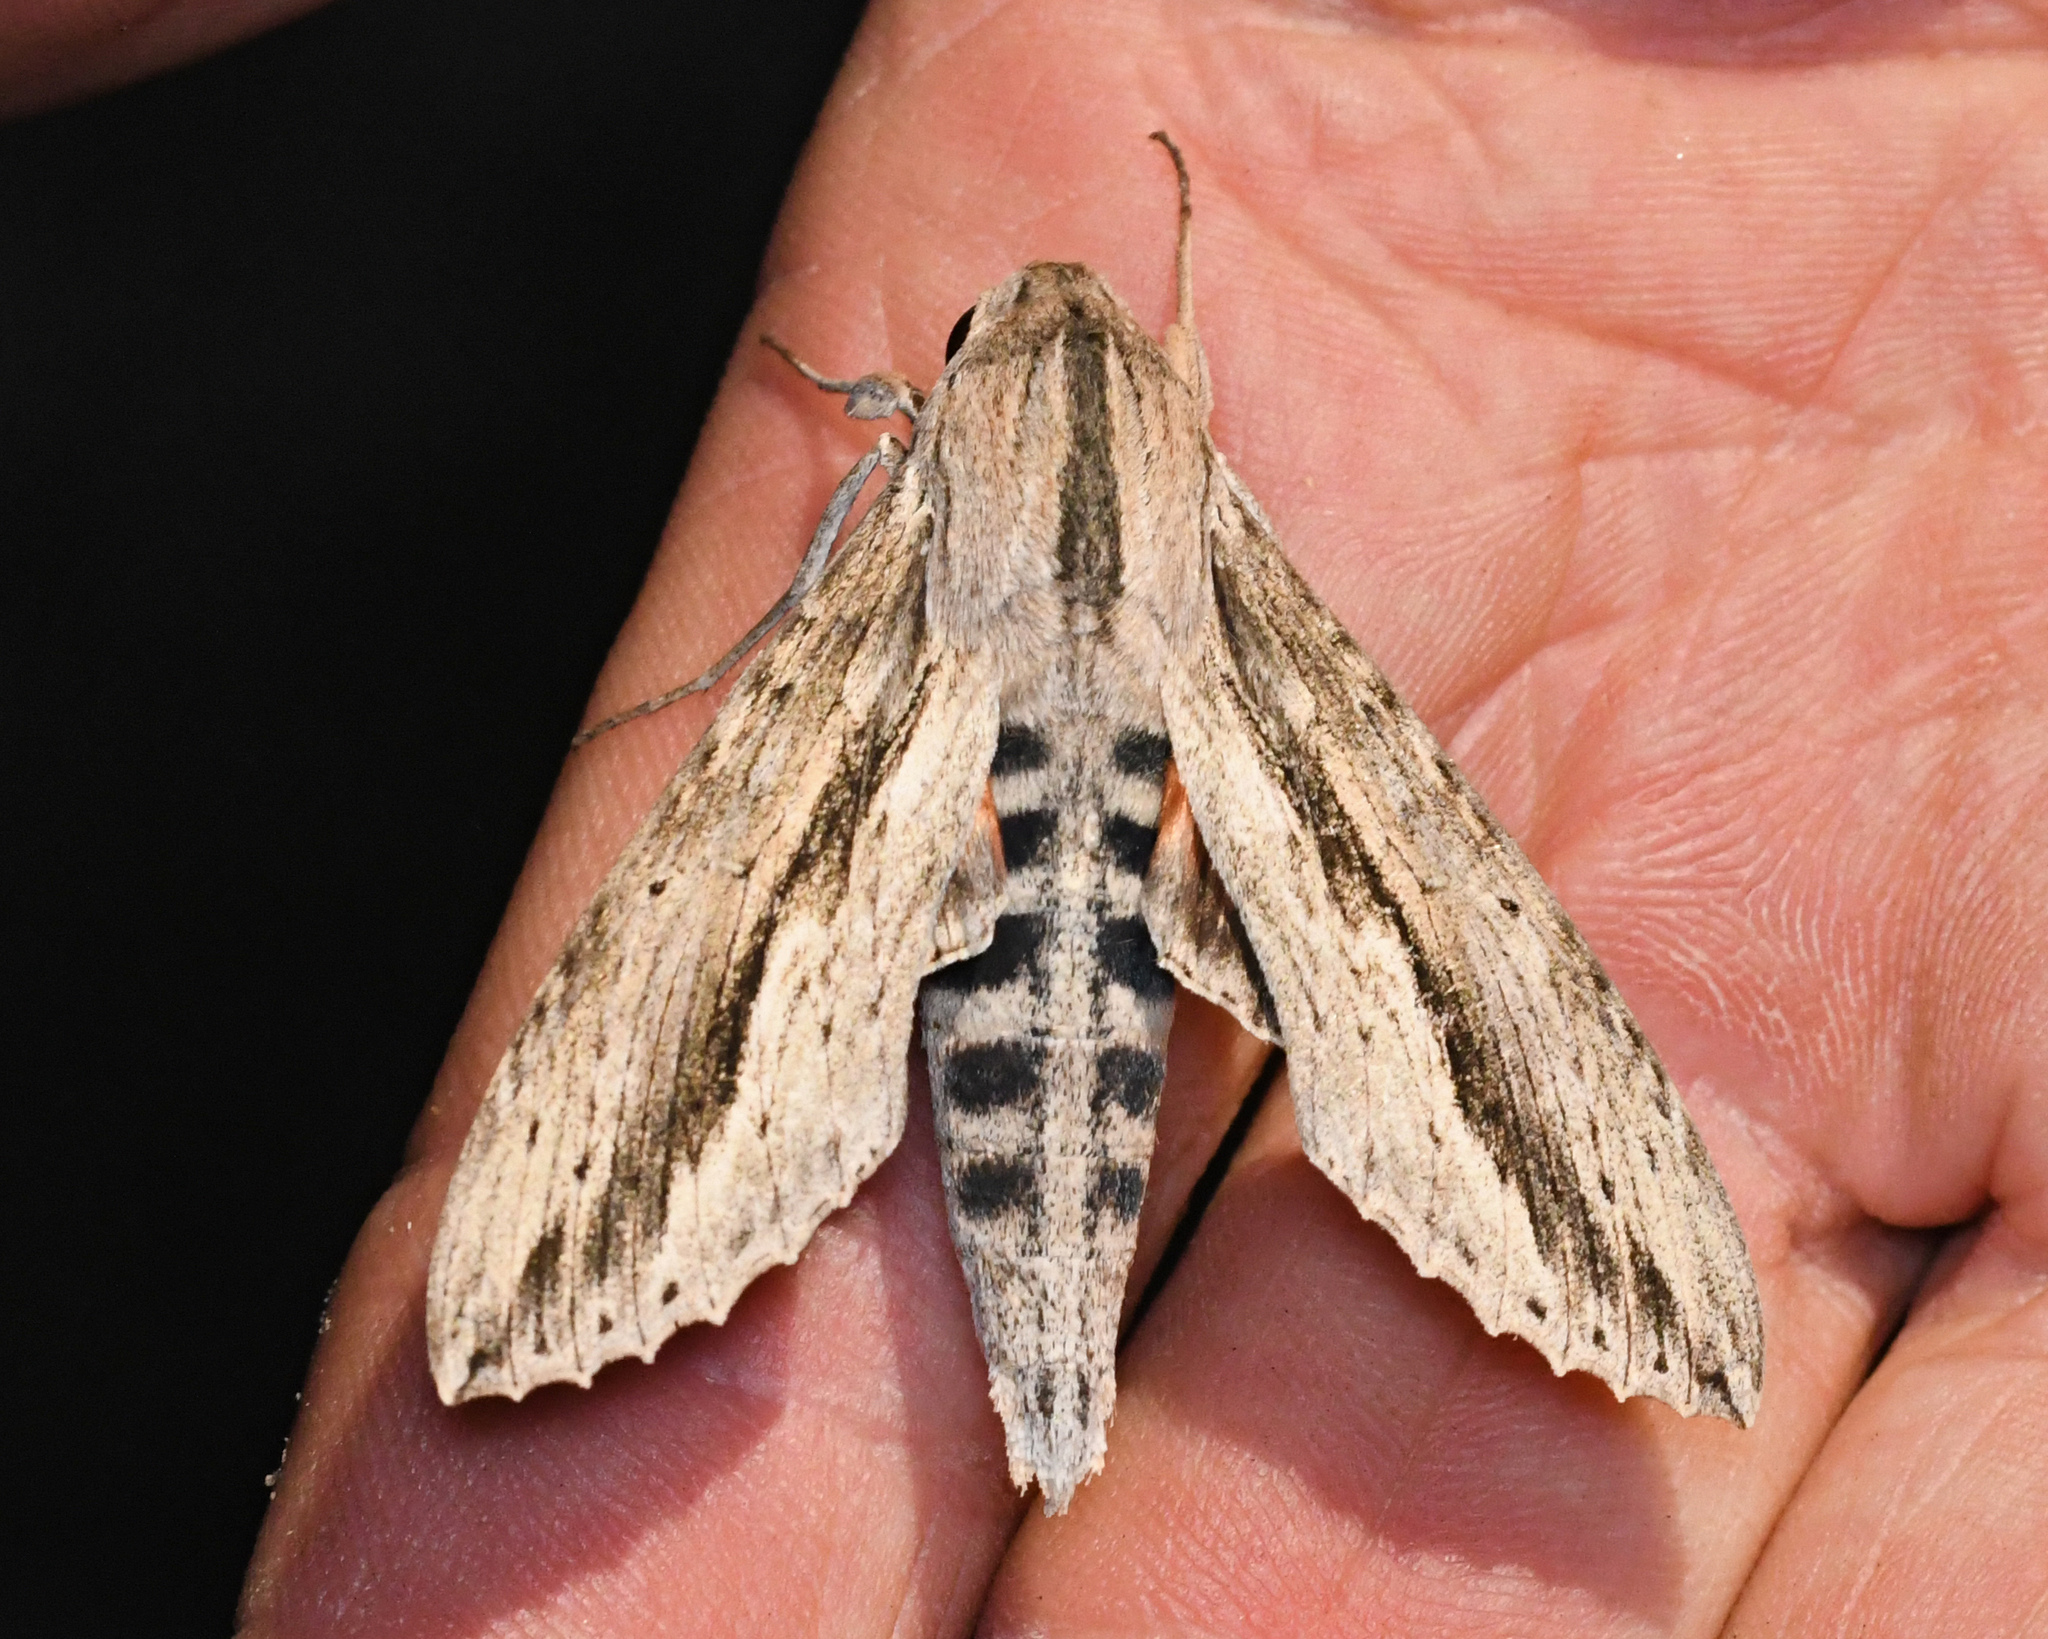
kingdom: Animalia
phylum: Arthropoda
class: Insecta
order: Lepidoptera
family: Sphingidae
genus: Erinnyis
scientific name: Erinnyis ello
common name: Ello sphinx
